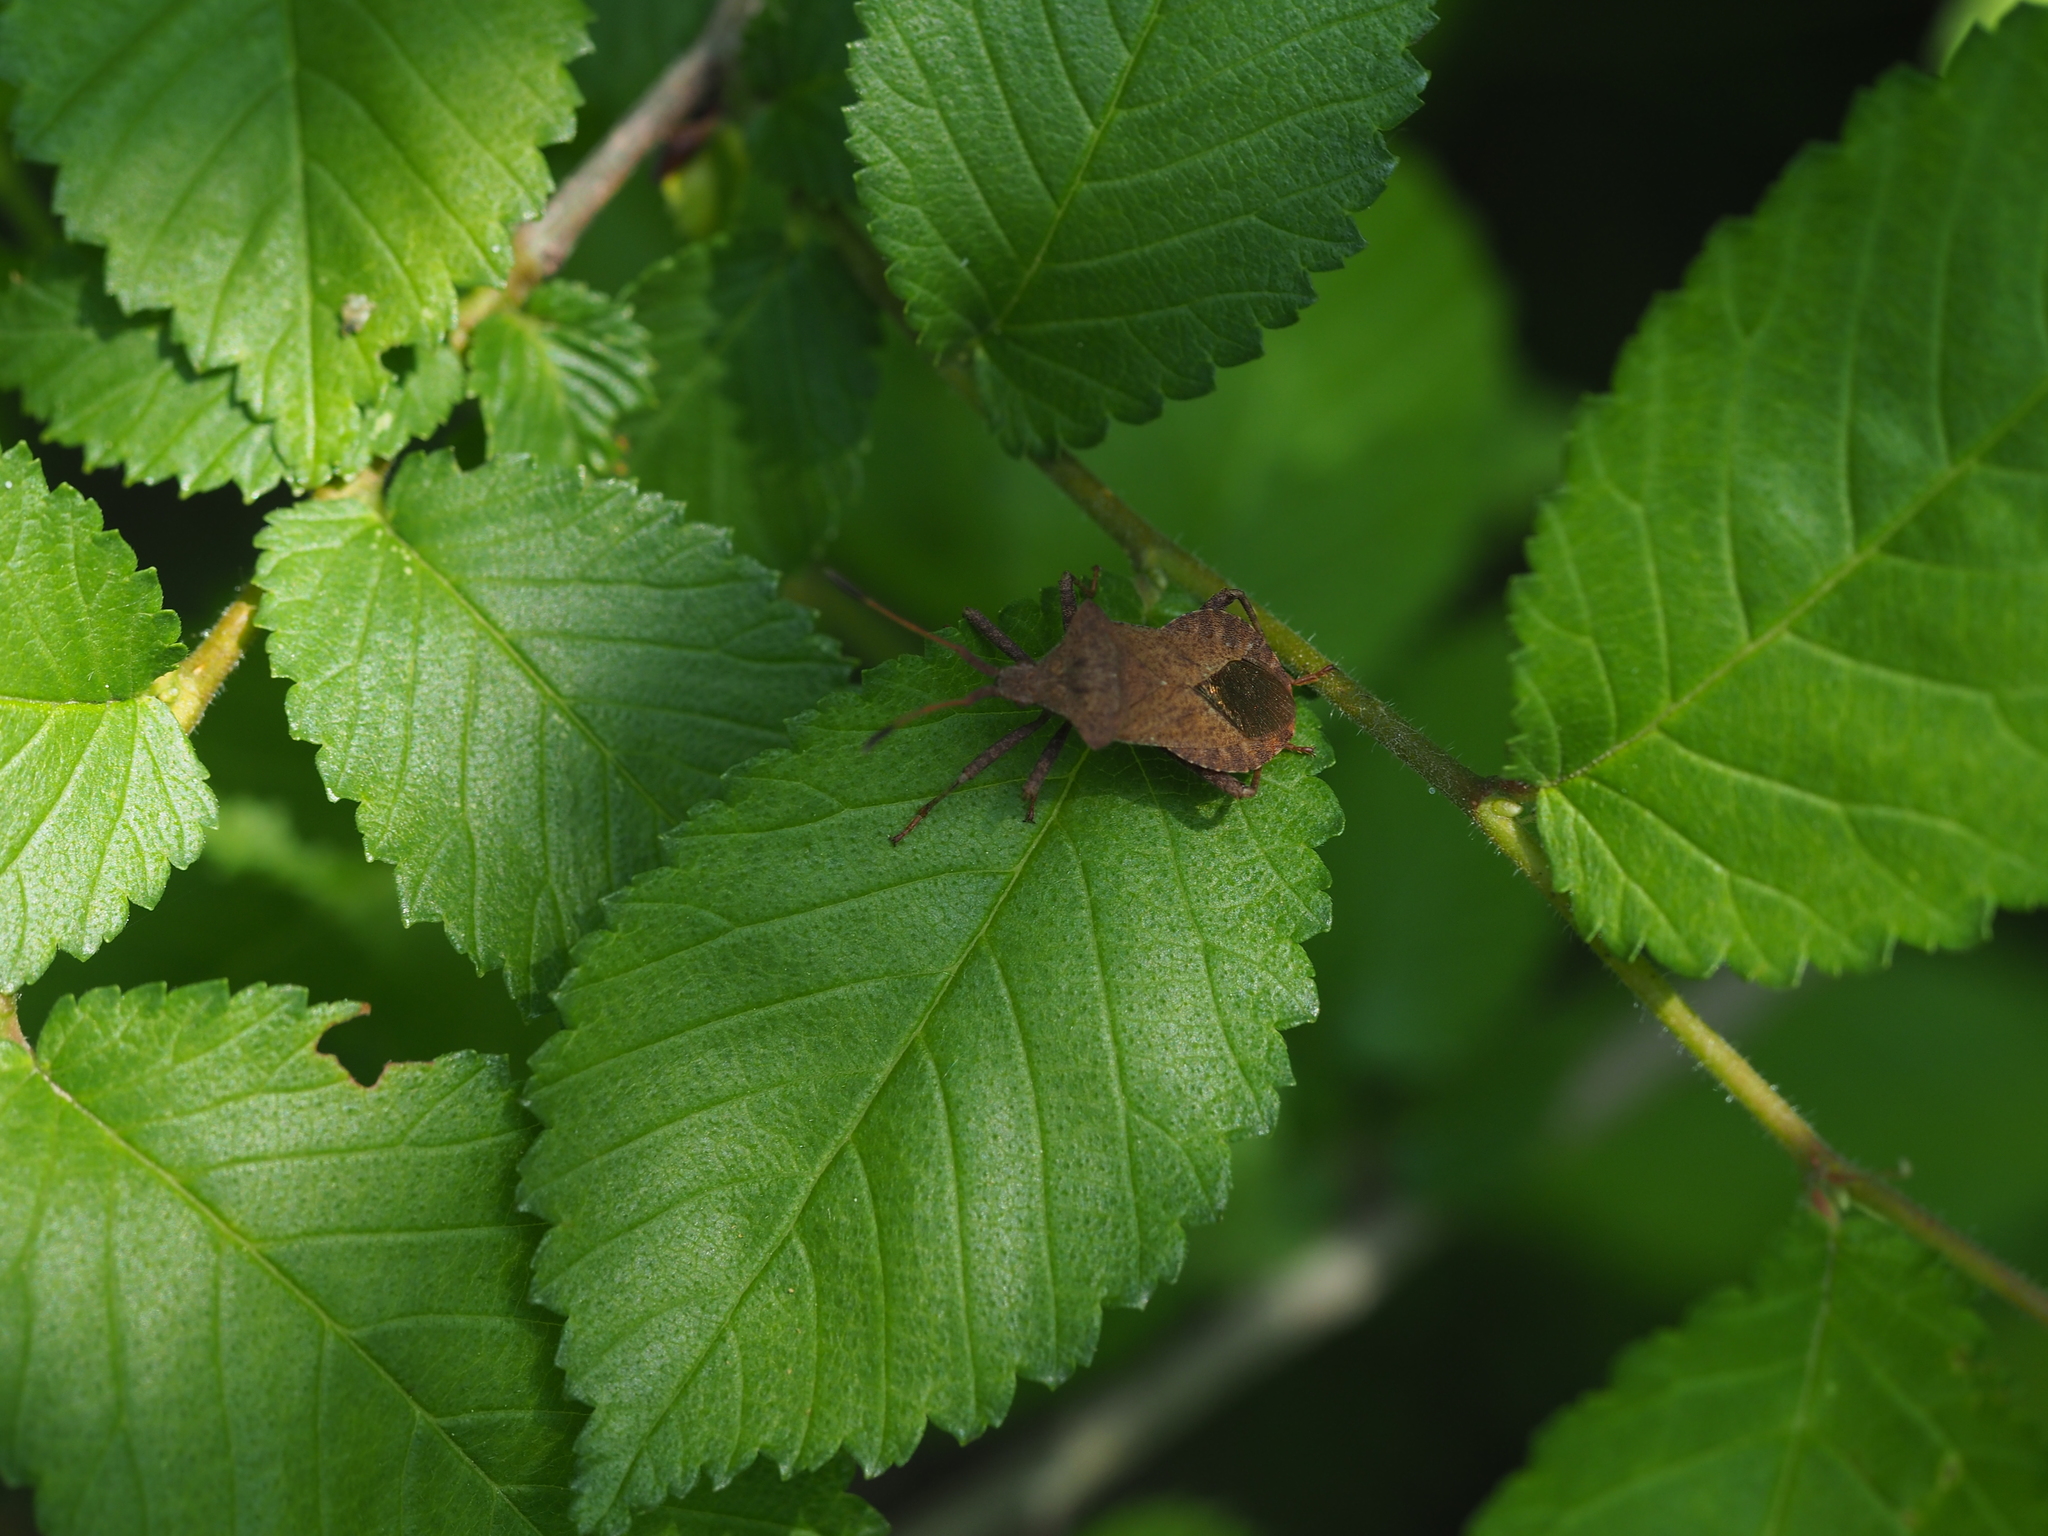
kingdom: Animalia
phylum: Arthropoda
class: Insecta
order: Hemiptera
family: Coreidae
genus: Coreus
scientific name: Coreus marginatus
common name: Dock bug
